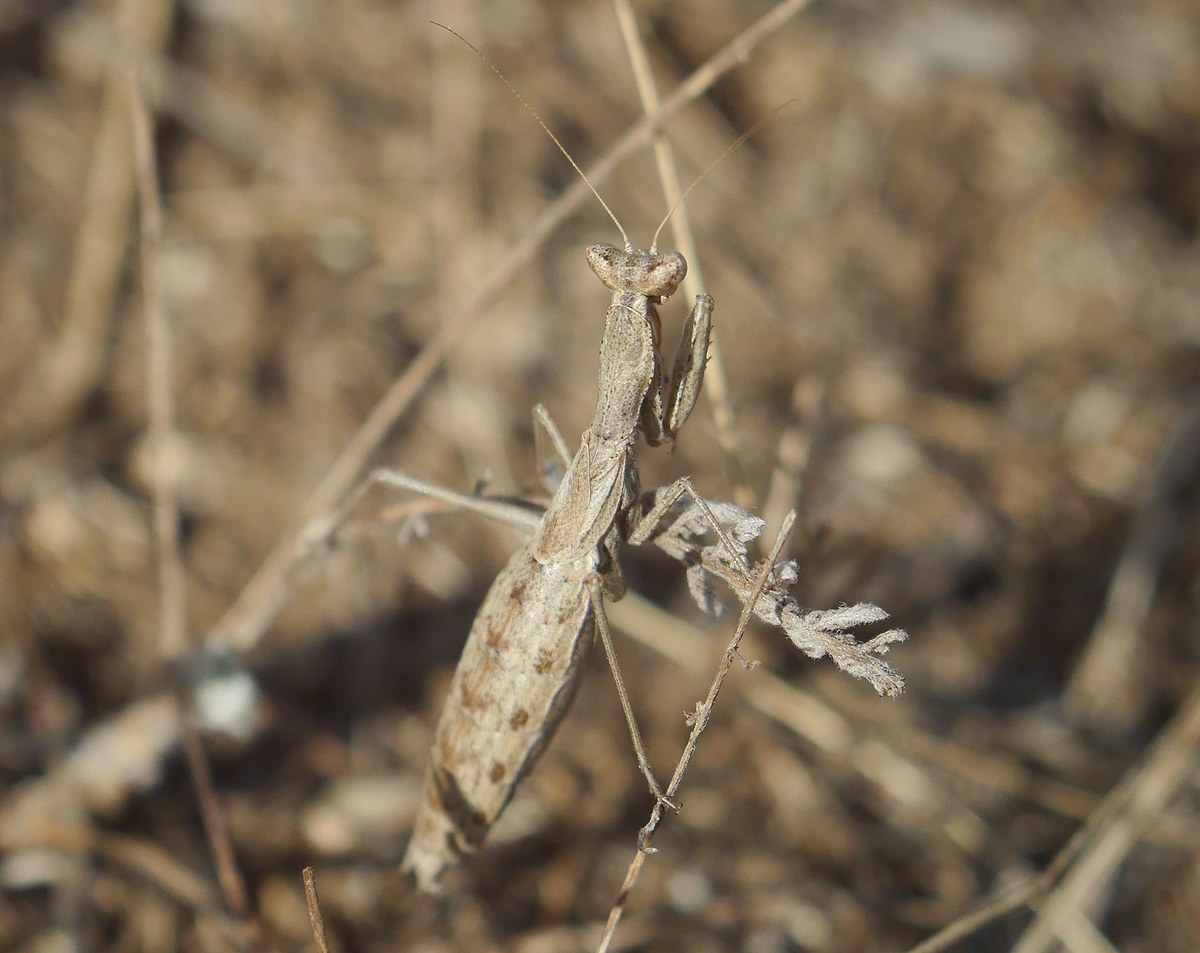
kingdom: Animalia
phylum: Arthropoda
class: Insecta
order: Mantodea
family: Amelidae
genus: Ameles
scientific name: Ameles heldreichi
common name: Heldreich's dwarf mantis
